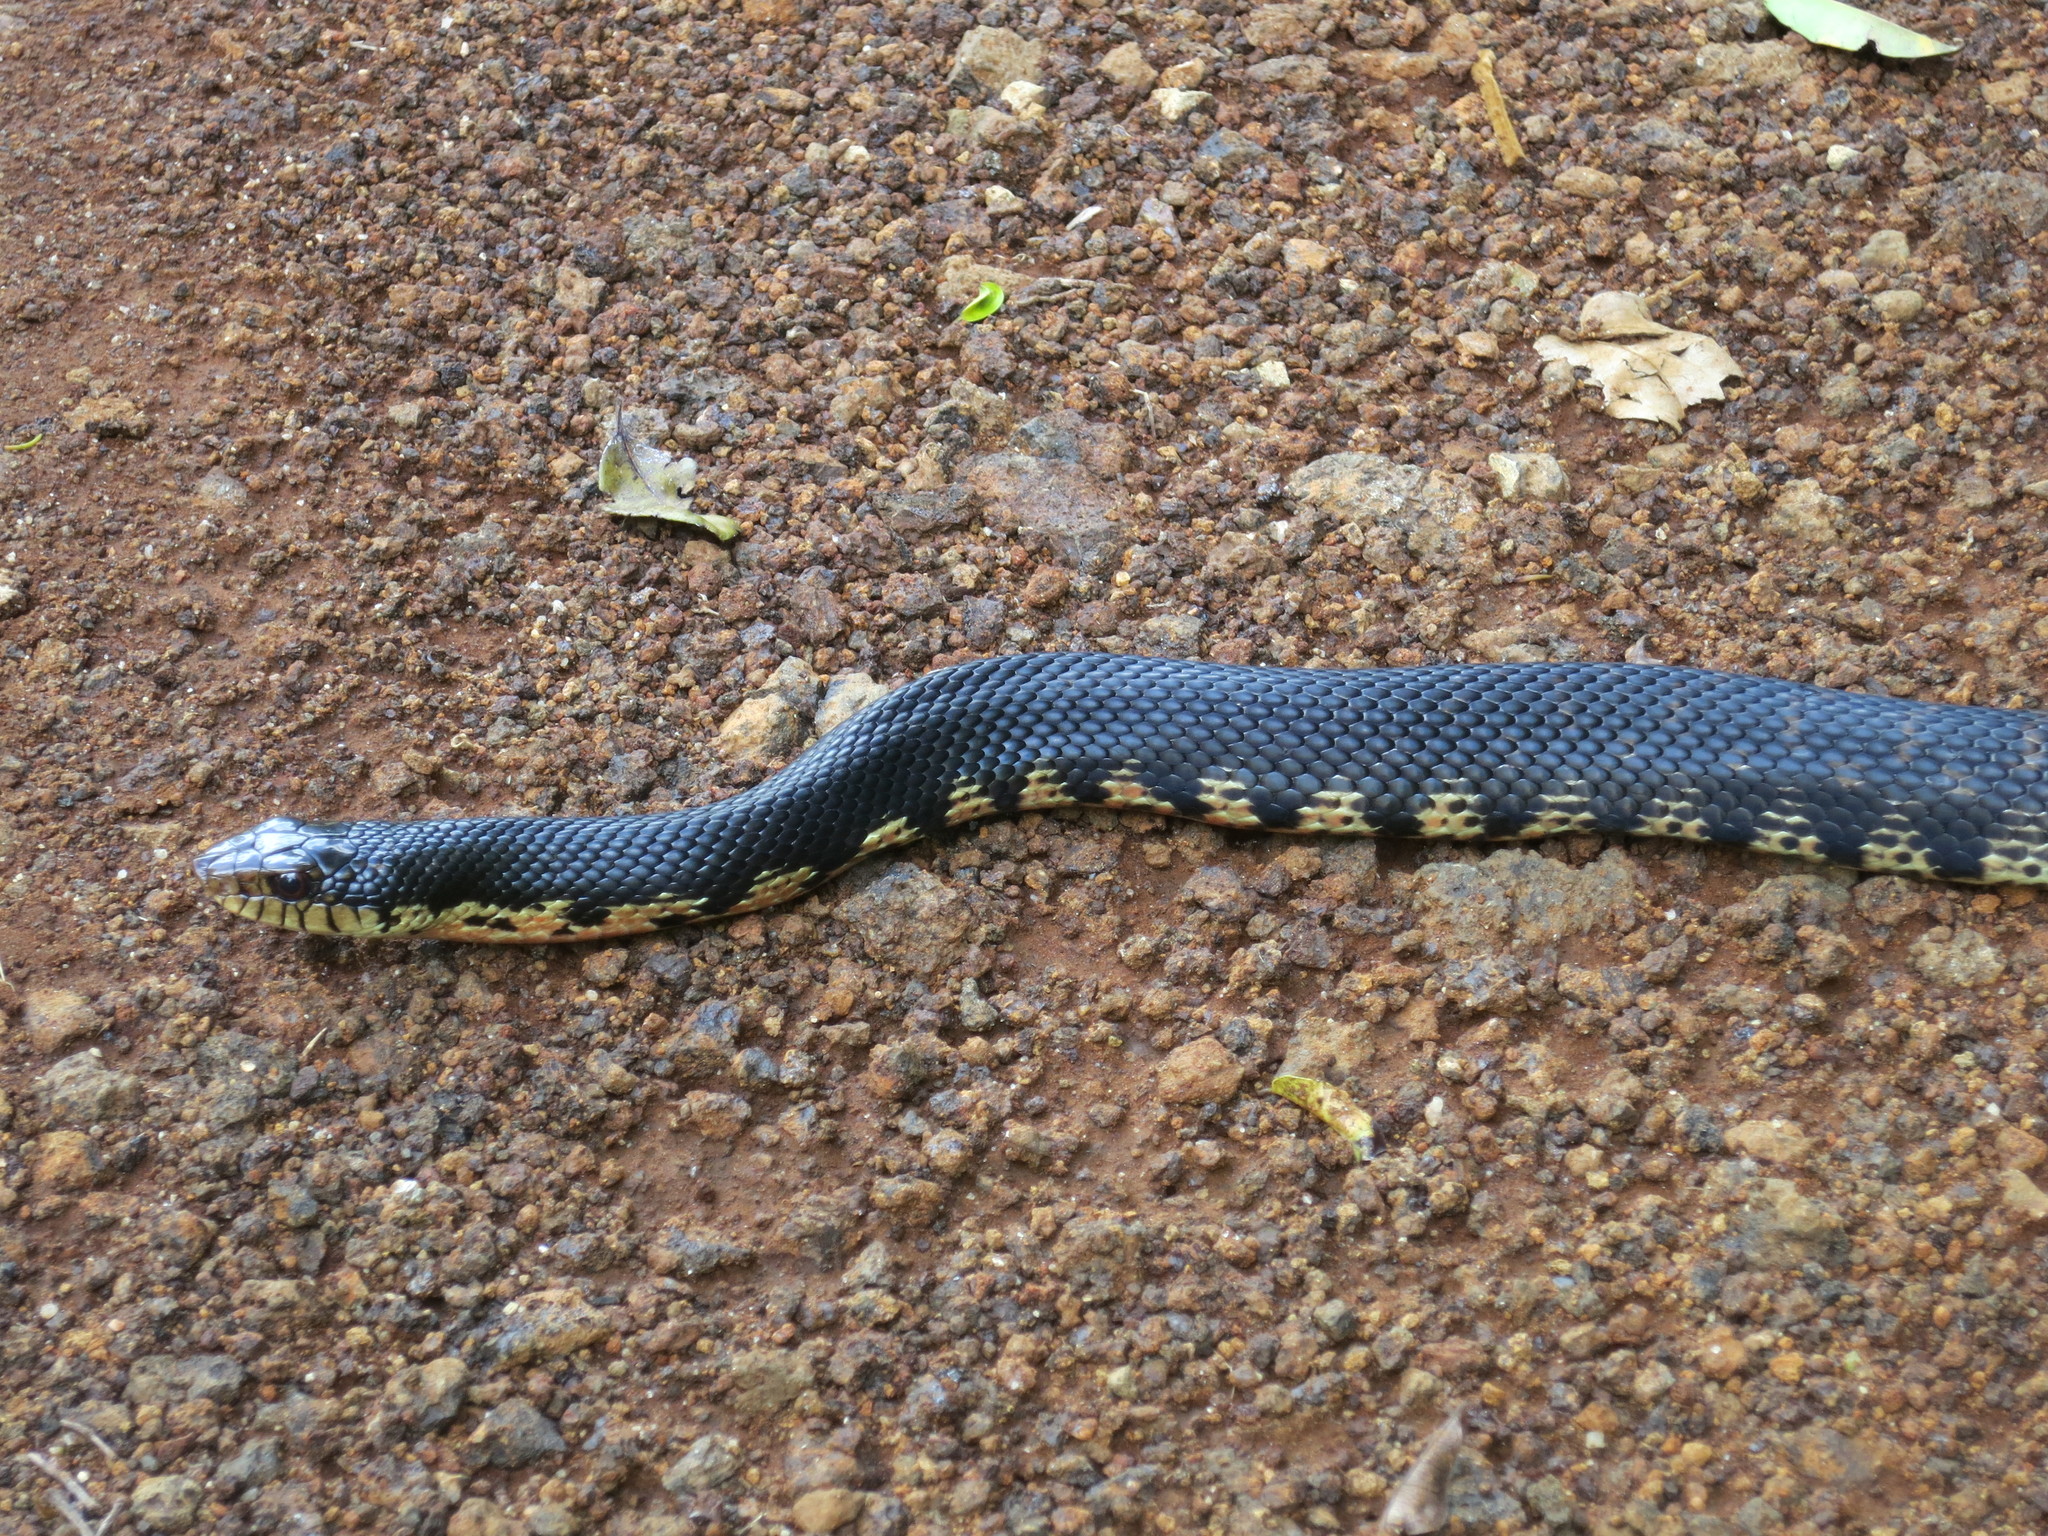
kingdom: Animalia
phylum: Chordata
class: Squamata
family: Pseudoxyrhophiidae
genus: Leioheterodon
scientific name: Leioheterodon madagascariensis
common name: Malagasy giant hognose snake
